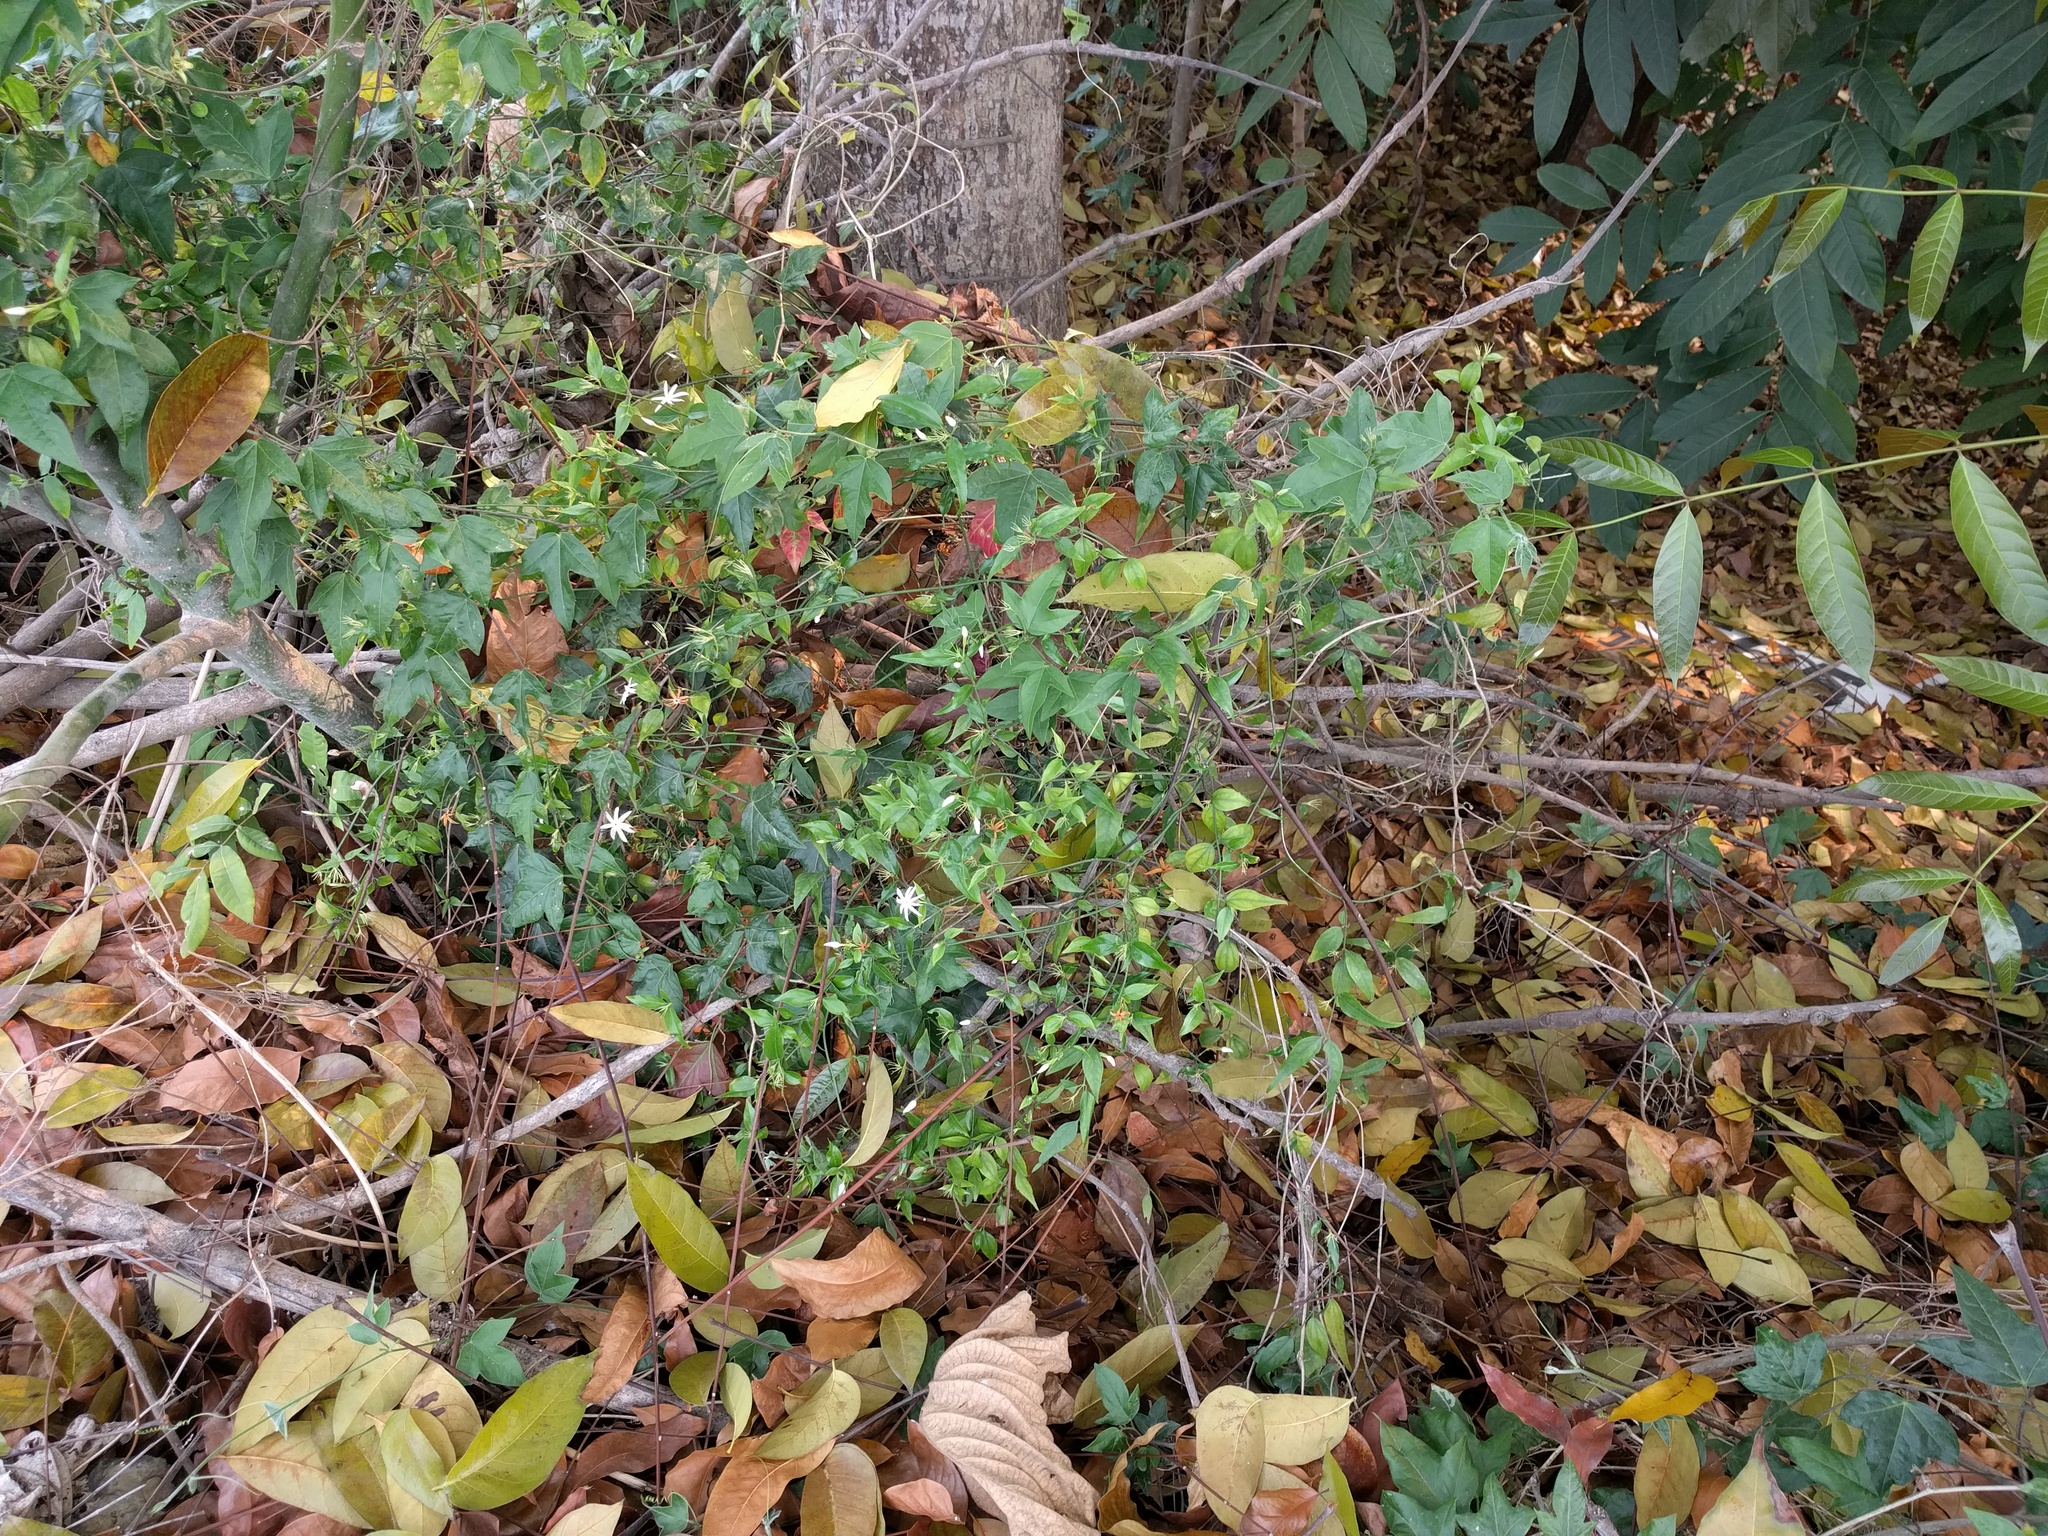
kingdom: Plantae
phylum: Tracheophyta
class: Magnoliopsida
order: Lamiales
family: Oleaceae
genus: Jasminum
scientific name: Jasminum nervosum
